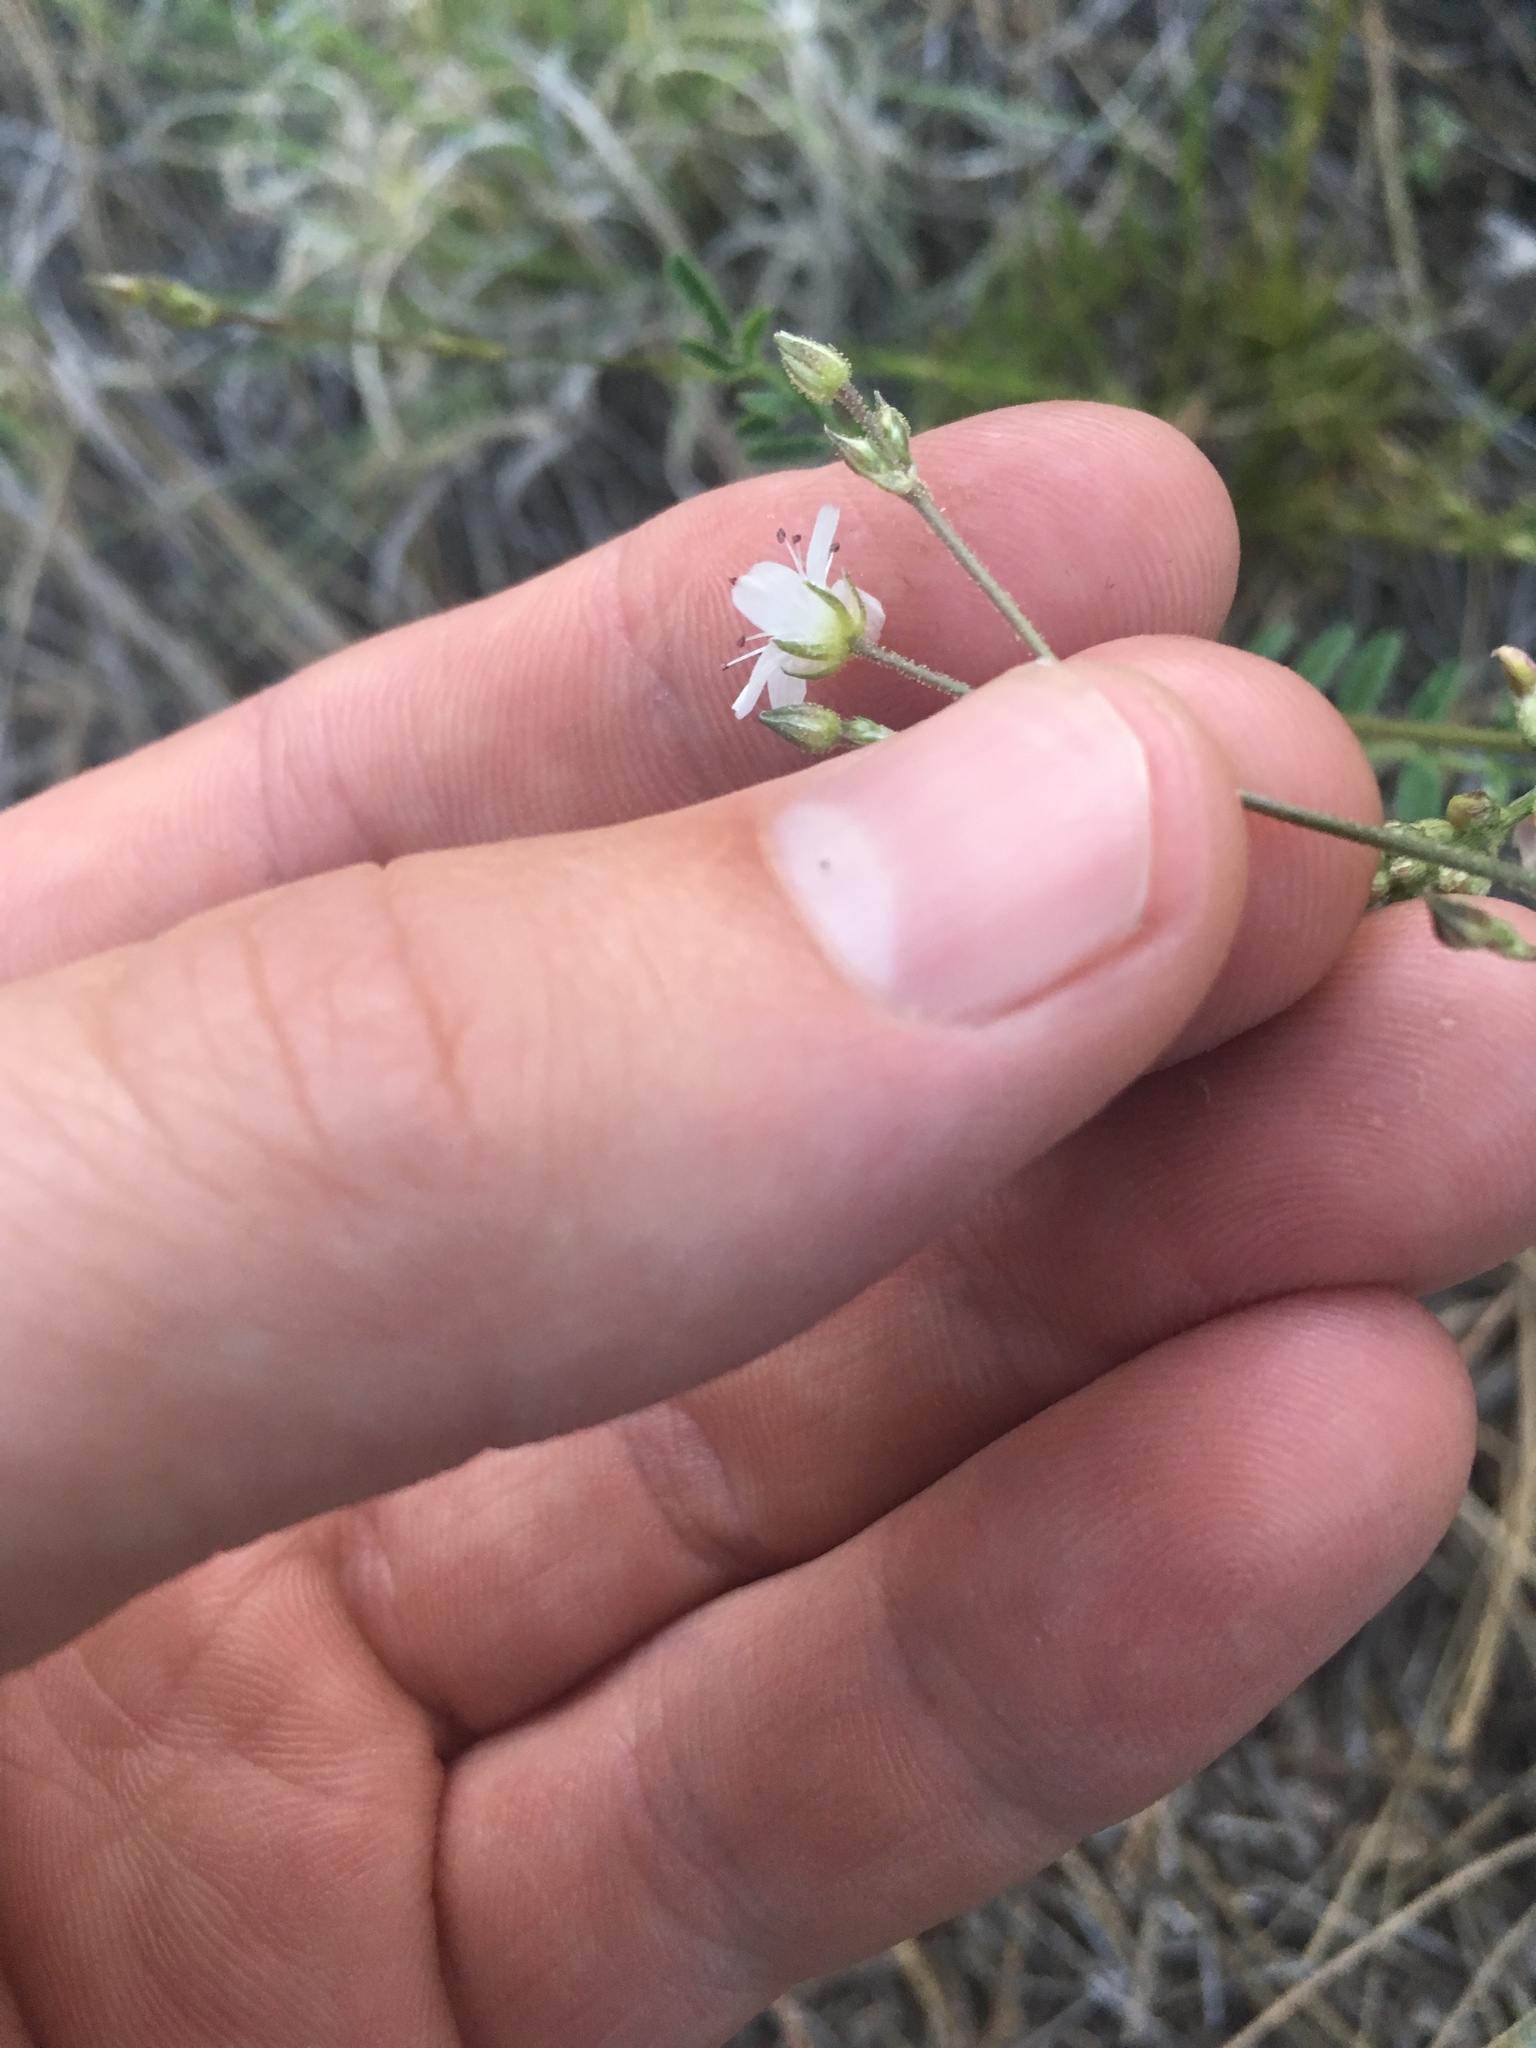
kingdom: Plantae
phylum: Tracheophyta
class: Magnoliopsida
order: Caryophyllales
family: Caryophyllaceae
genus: Eremogone
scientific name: Eremogone fendleri
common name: Fendler's sandwort
